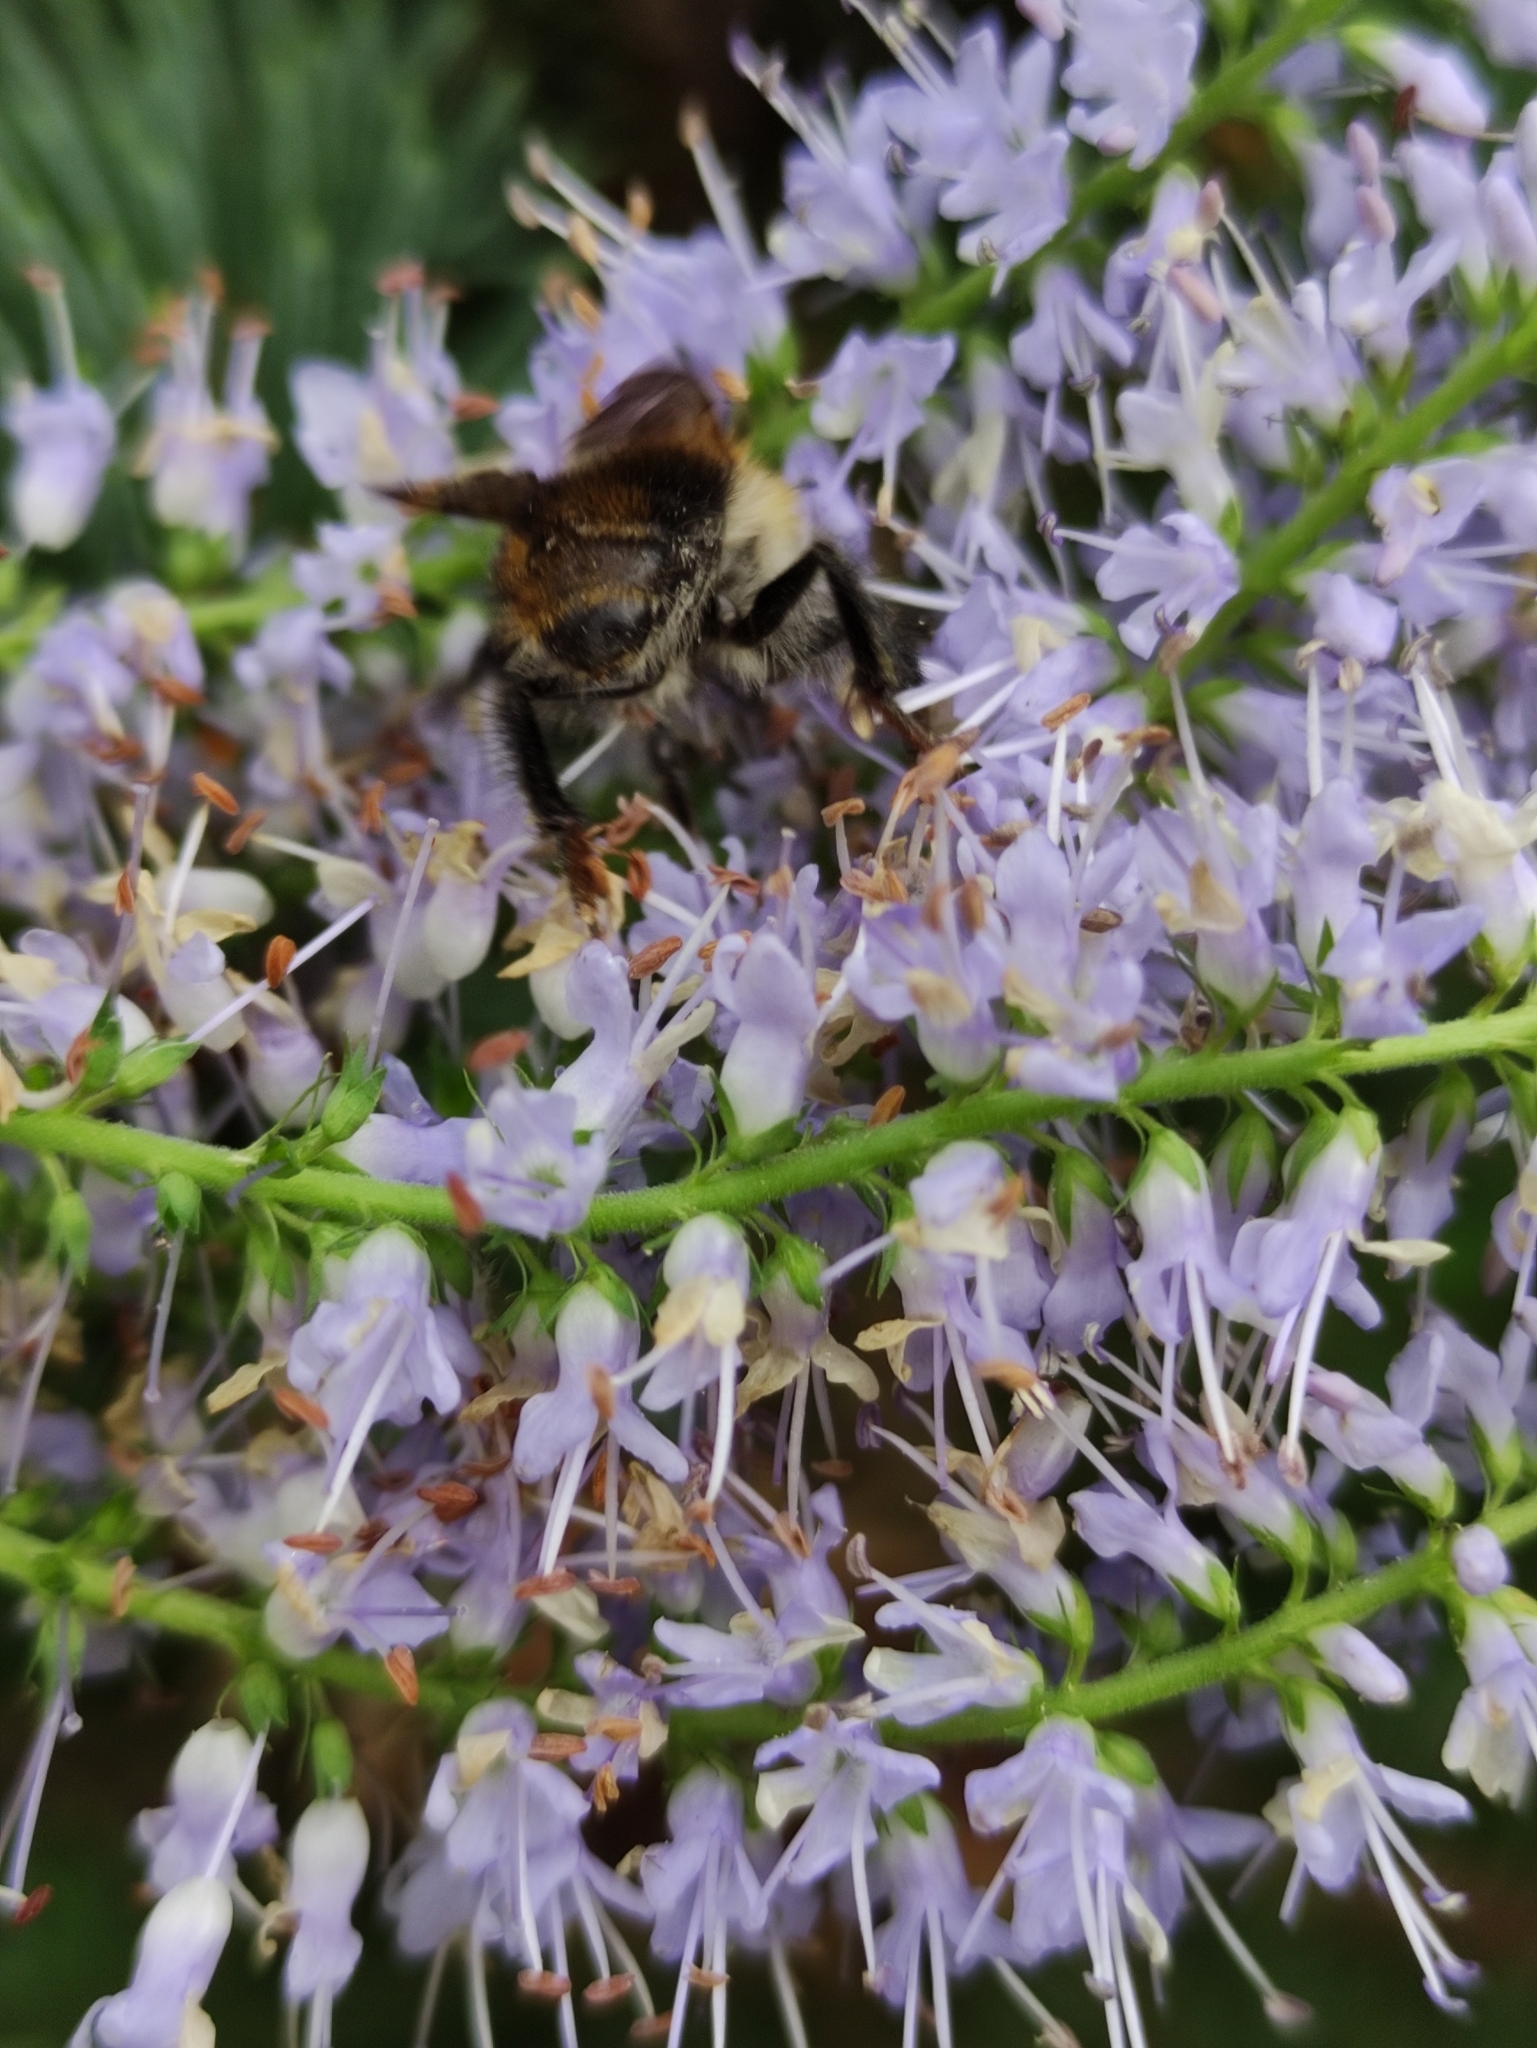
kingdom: Plantae
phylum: Tracheophyta
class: Magnoliopsida
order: Lamiales
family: Plantaginaceae
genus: Veronica
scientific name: Veronica longifolia
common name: Garden speedwell
